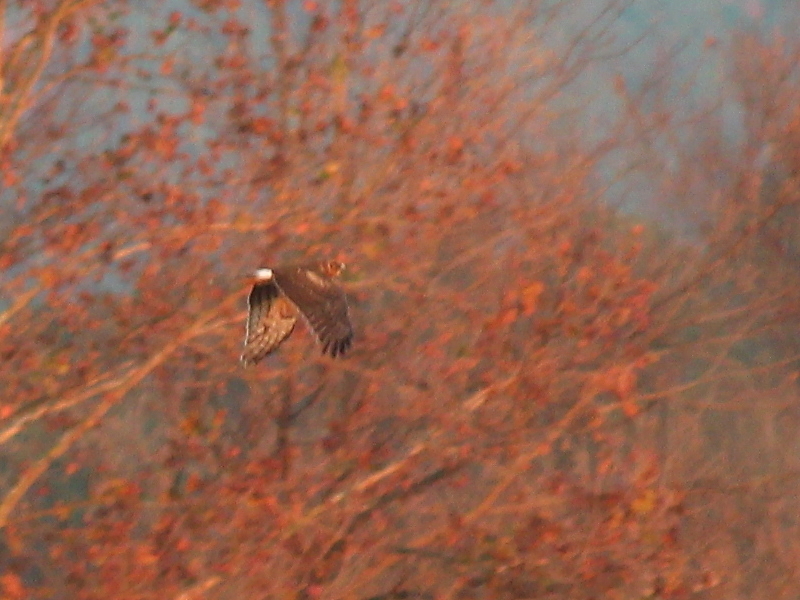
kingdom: Animalia
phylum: Chordata
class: Aves
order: Accipitriformes
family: Accipitridae
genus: Circus
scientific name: Circus cyaneus
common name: Hen harrier
